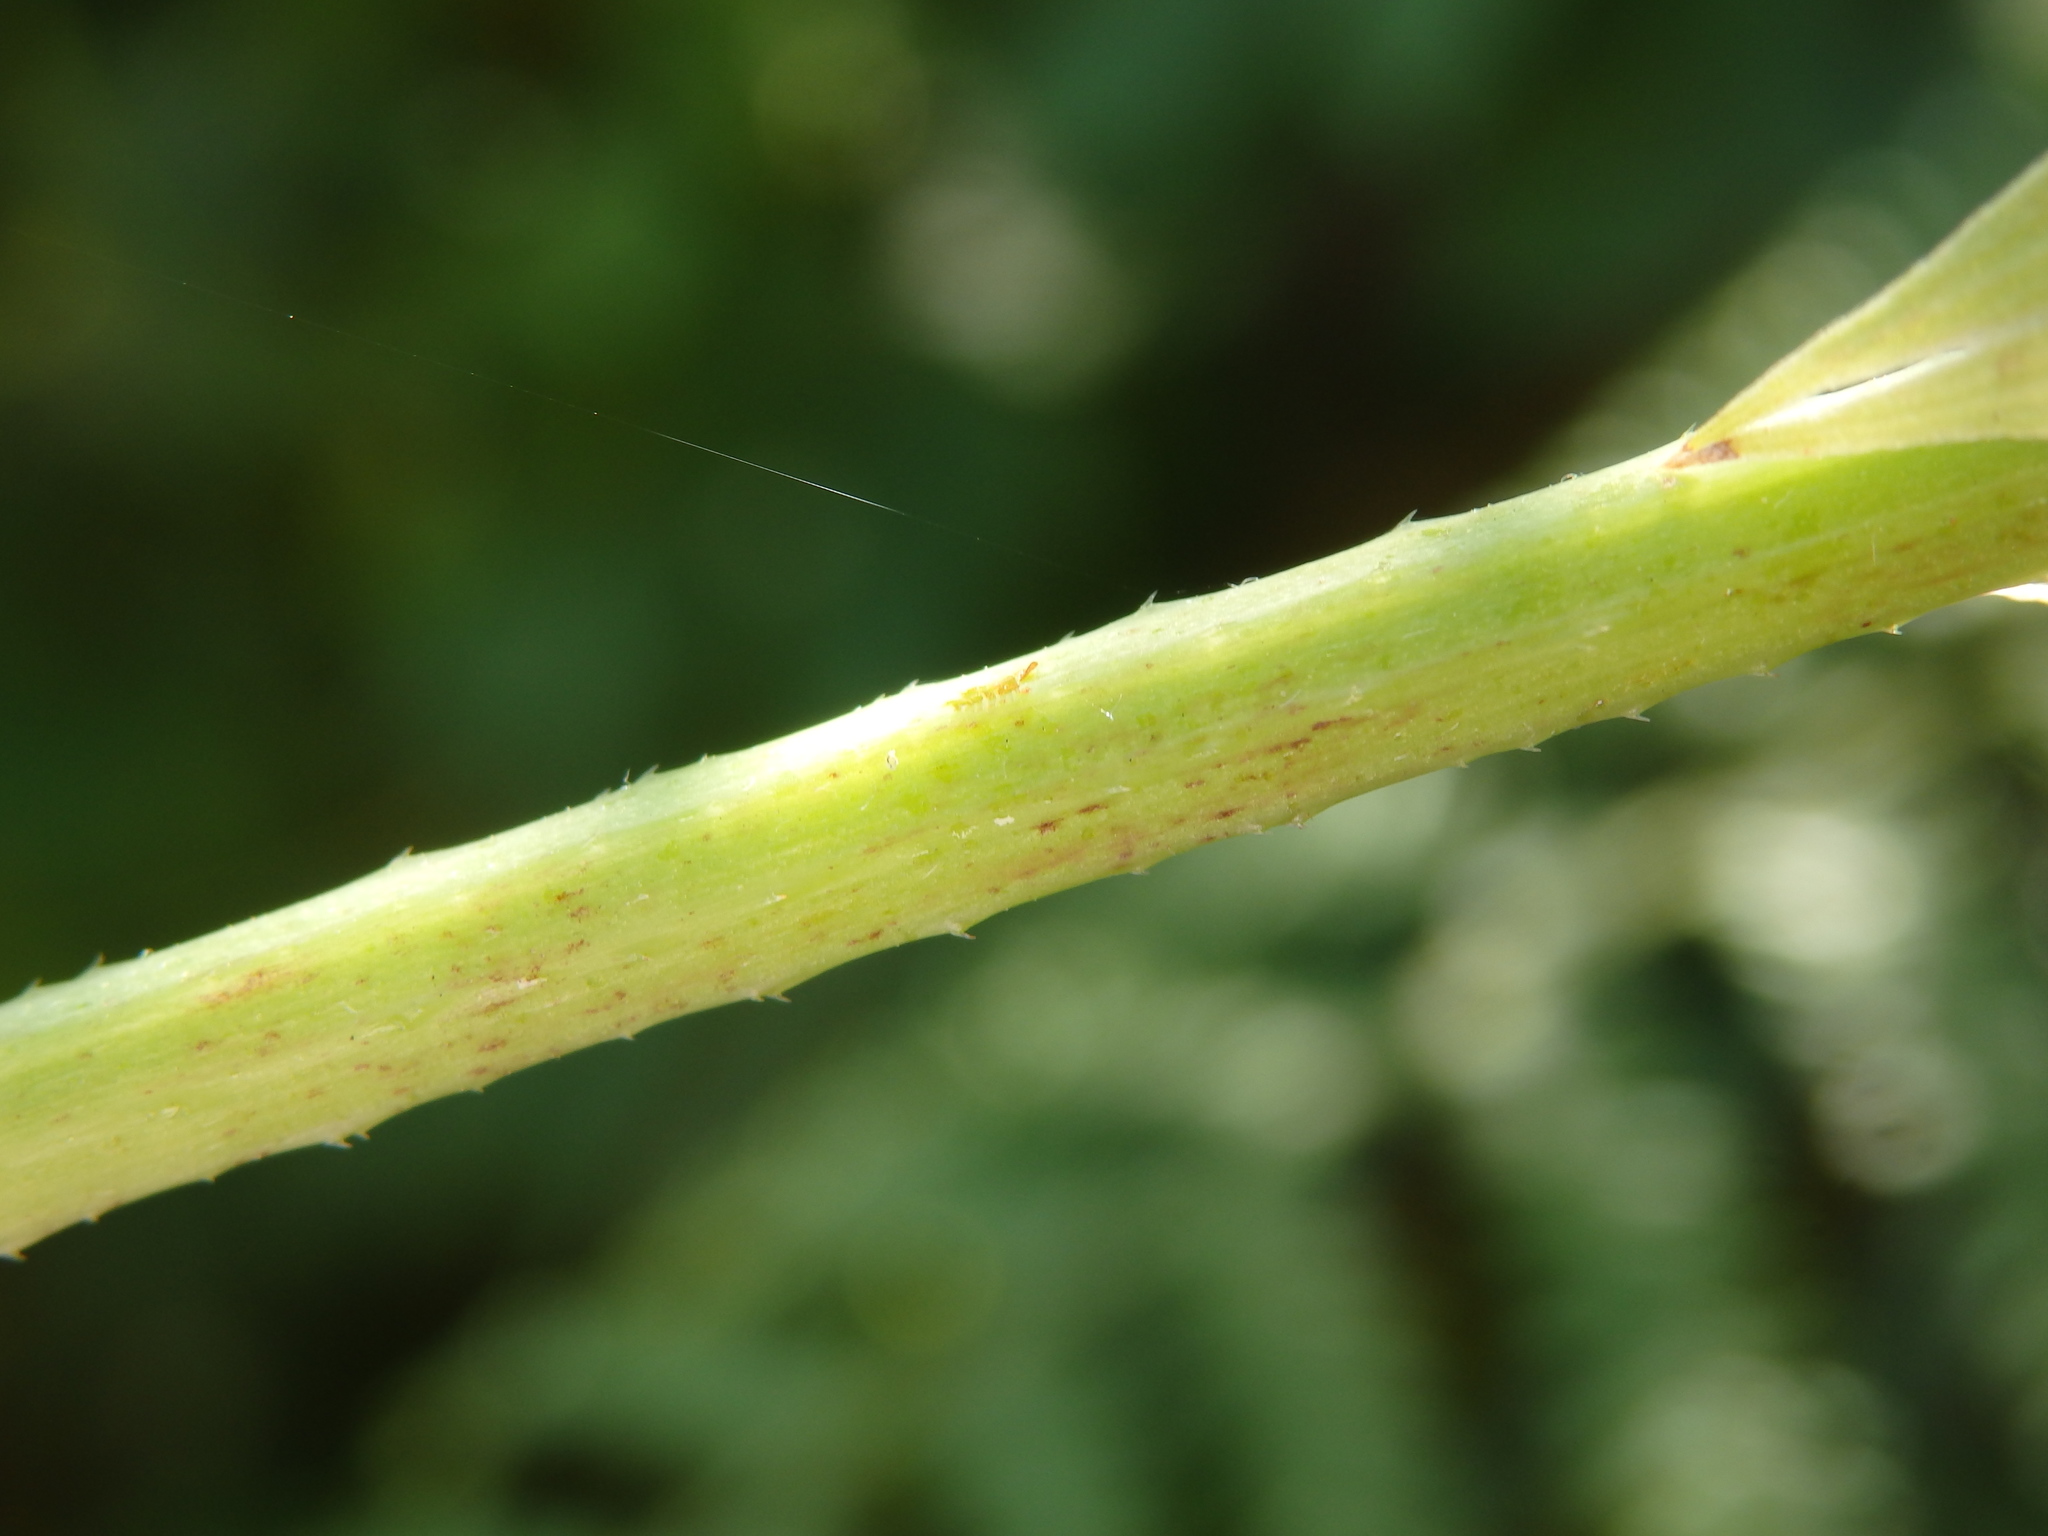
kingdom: Plantae
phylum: Tracheophyta
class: Magnoliopsida
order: Rosales
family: Cannabaceae
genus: Humulus
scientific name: Humulus lupulus
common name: Hop
